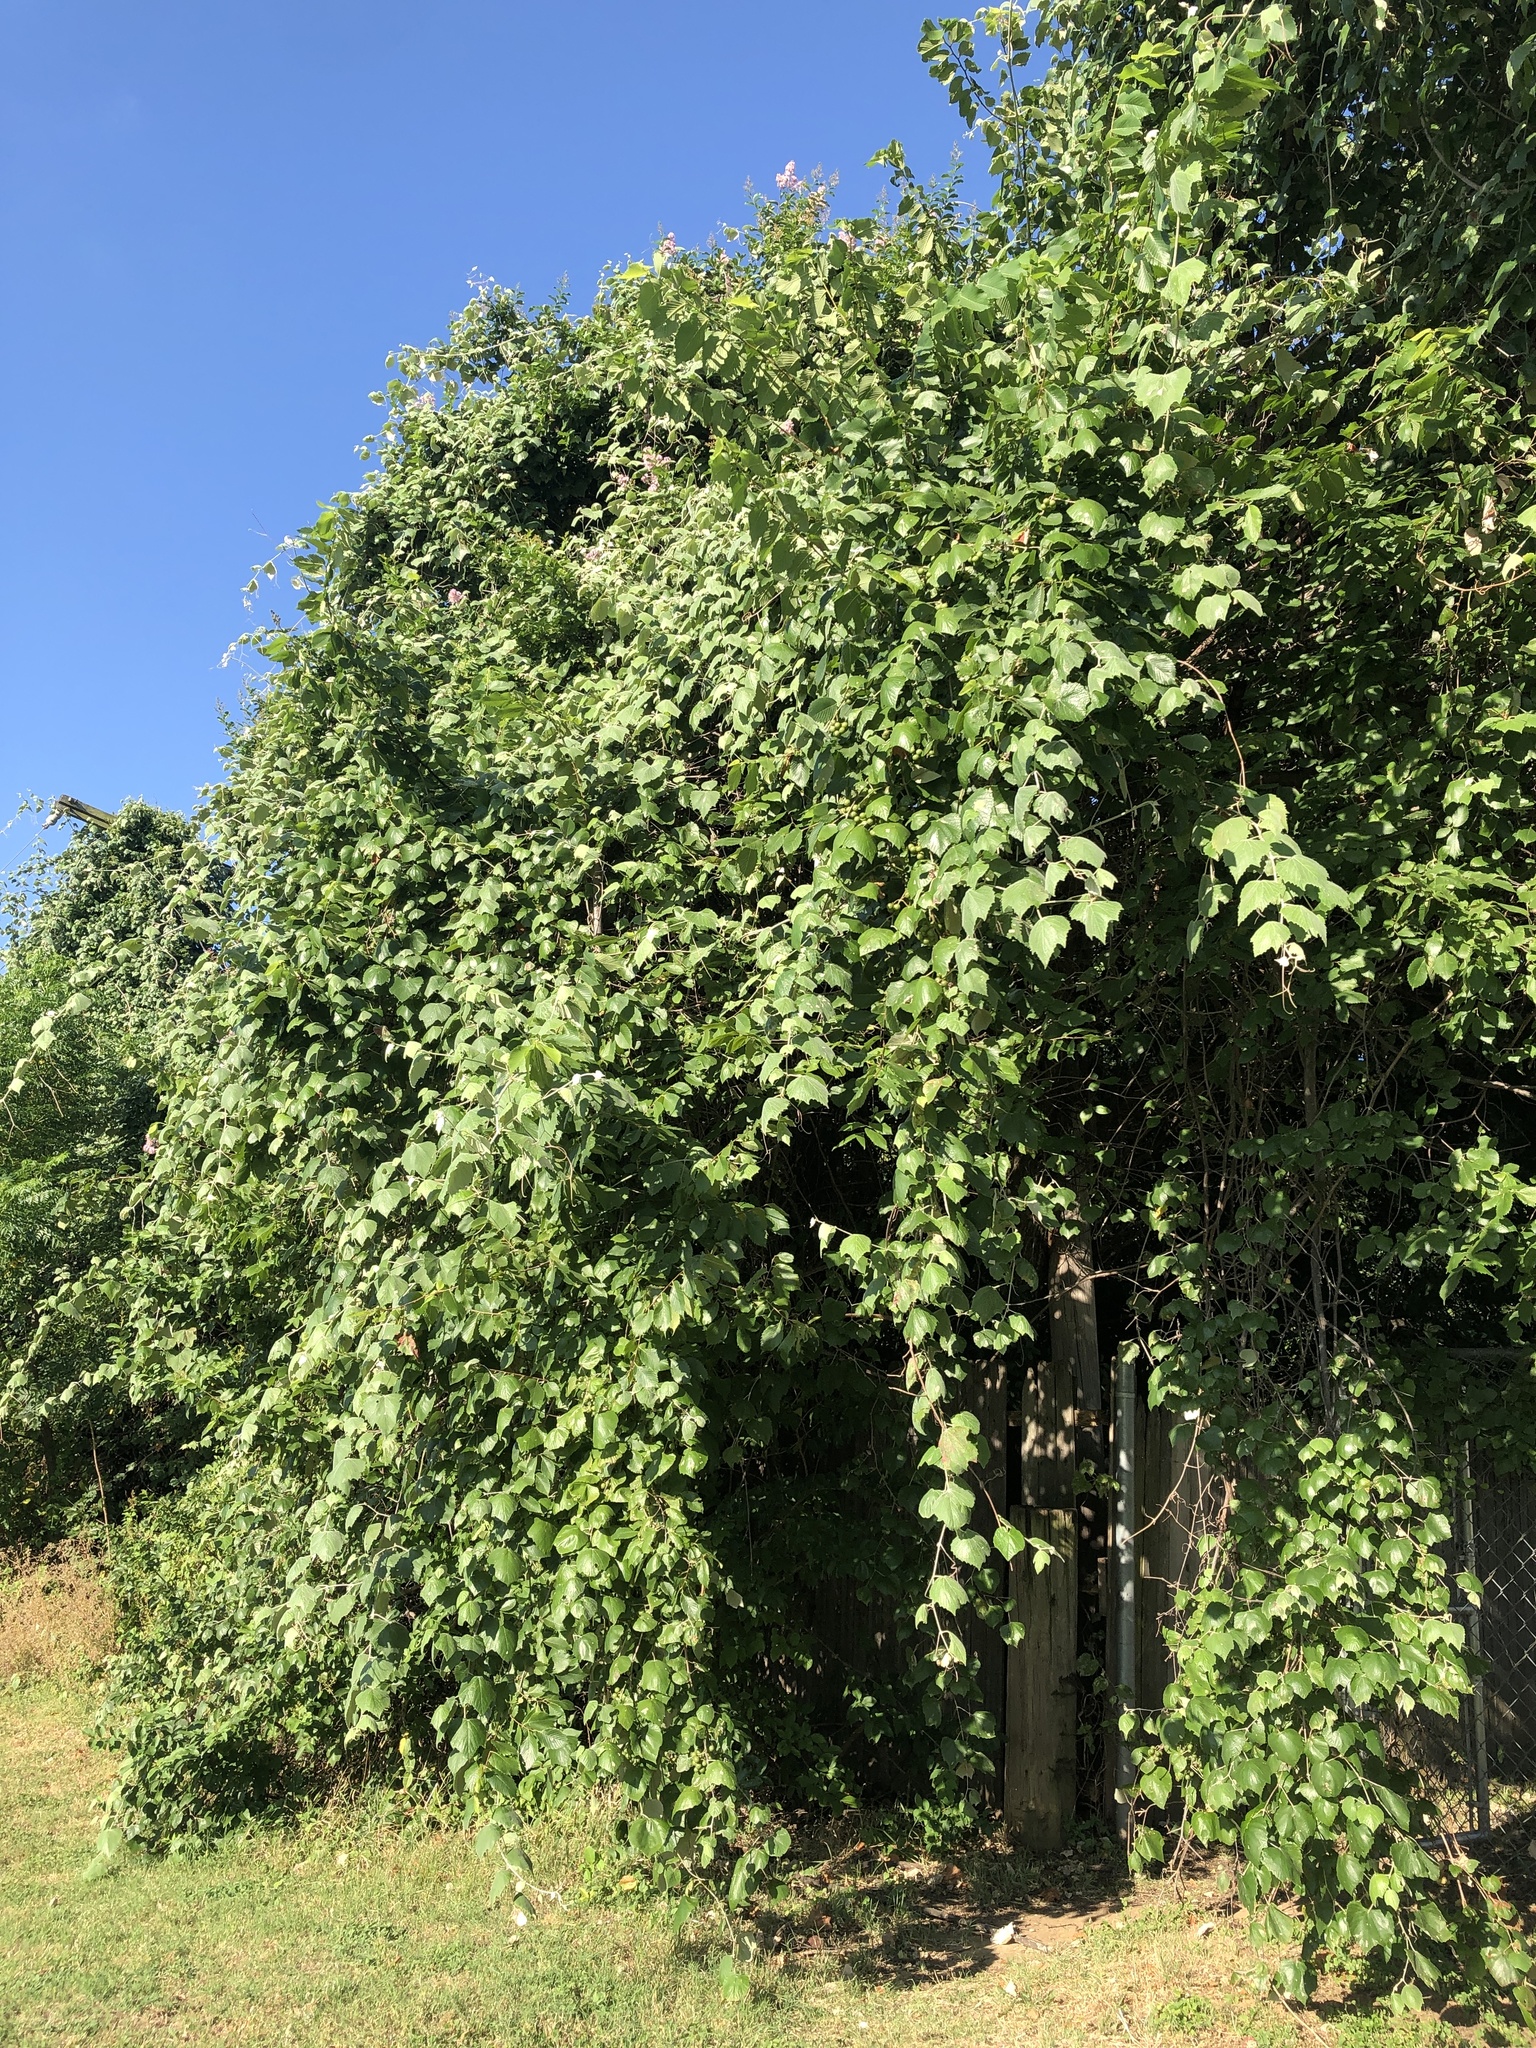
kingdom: Plantae
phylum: Tracheophyta
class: Magnoliopsida
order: Vitales
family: Vitaceae
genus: Vitis
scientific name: Vitis mustangensis
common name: Mustang grape
